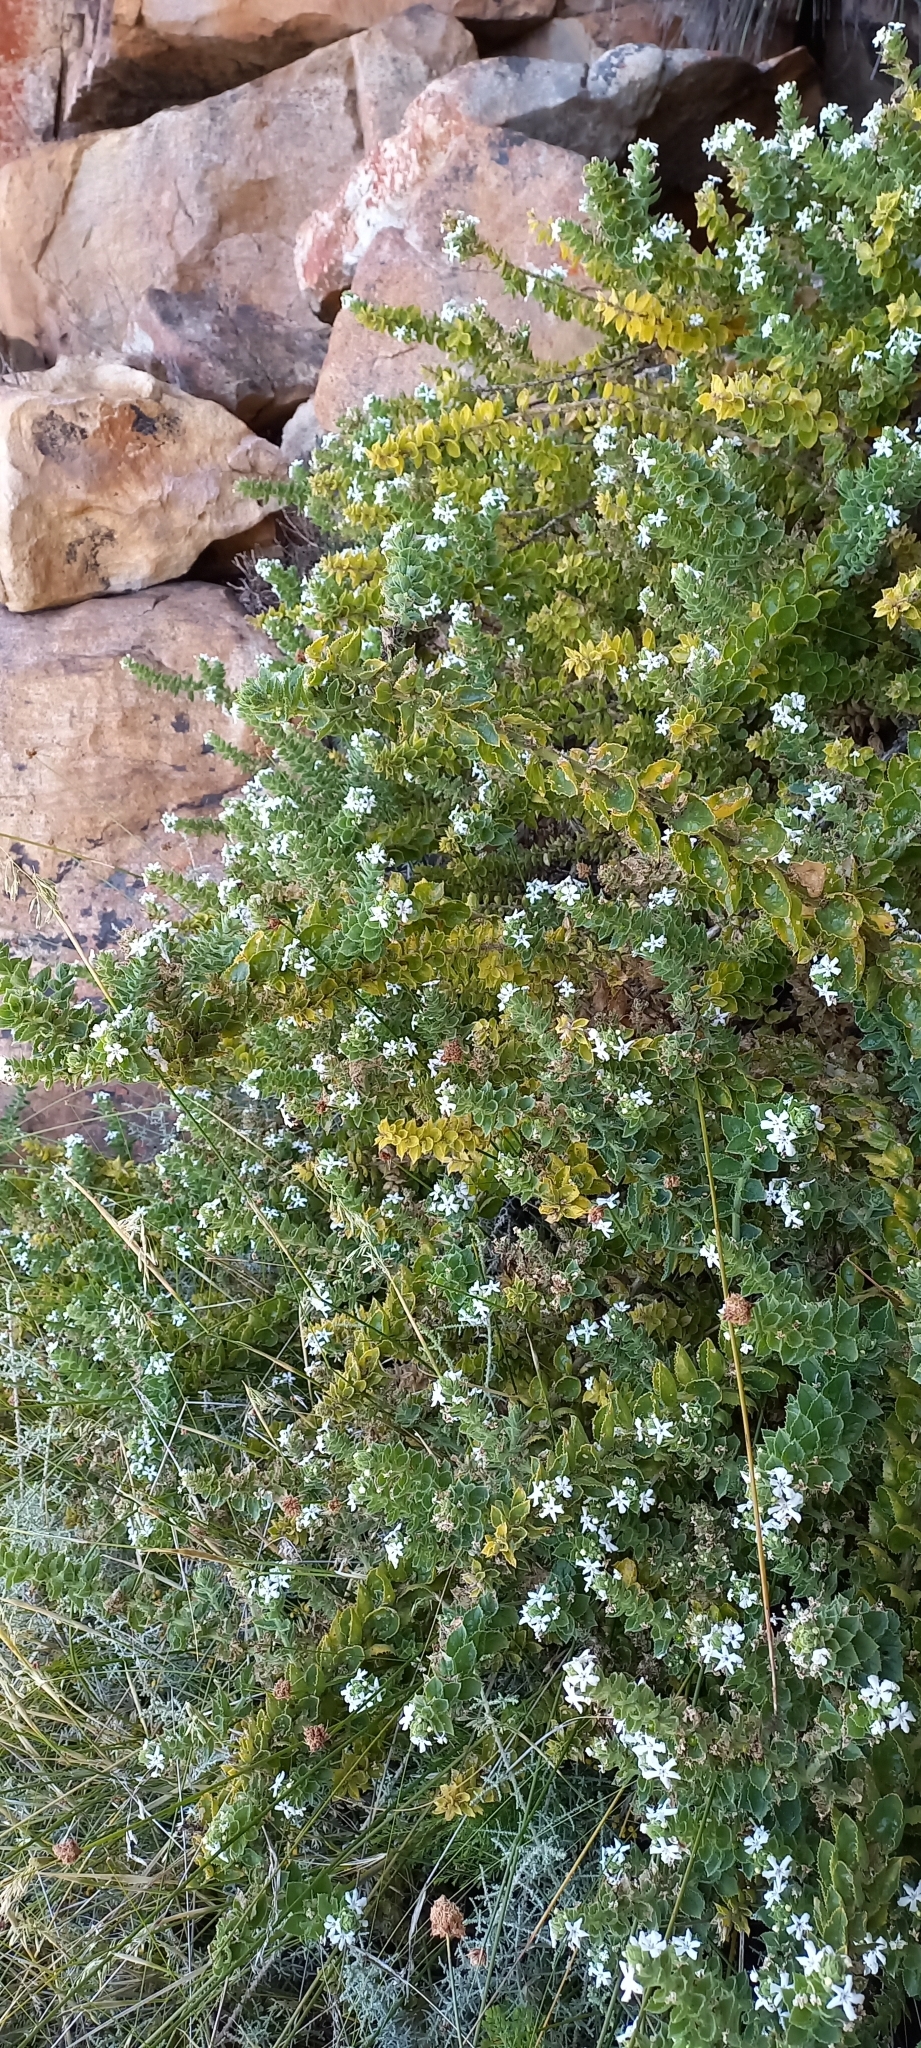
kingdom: Plantae
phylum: Tracheophyta
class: Magnoliopsida
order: Lamiales
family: Scrophulariaceae
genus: Oftia
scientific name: Oftia africana
